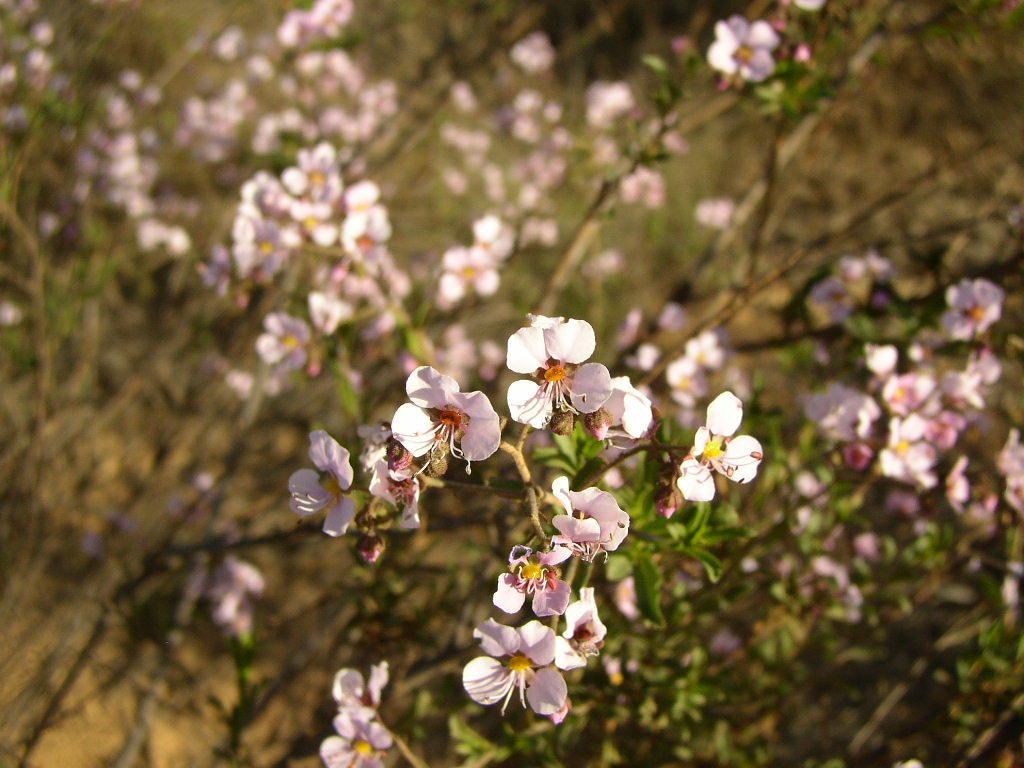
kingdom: Plantae
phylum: Tracheophyta
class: Magnoliopsida
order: Sapindales
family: Sapindaceae
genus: Diplopeltis
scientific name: Diplopeltis huegelii
